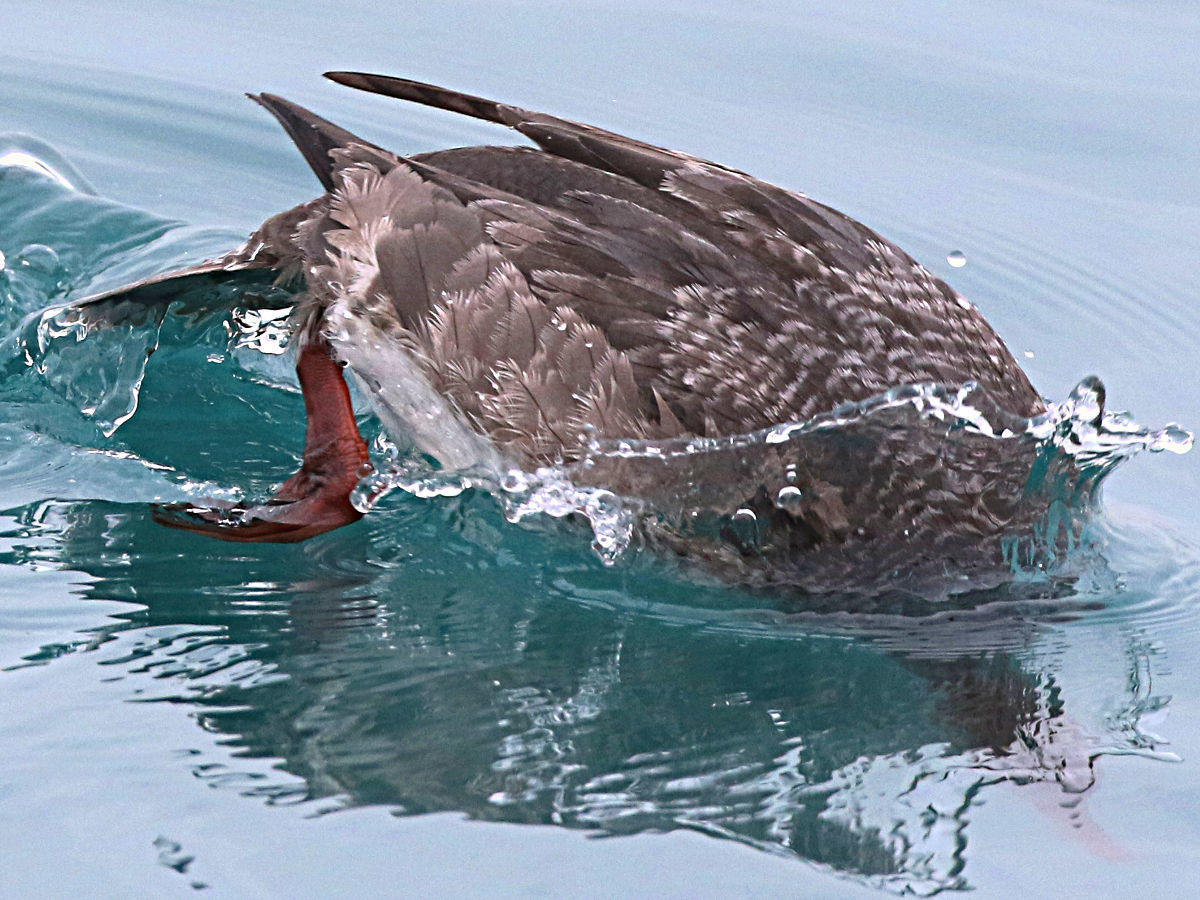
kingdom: Animalia
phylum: Chordata
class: Aves
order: Anseriformes
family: Anatidae
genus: Mergus
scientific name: Mergus serrator
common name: Red-breasted merganser
